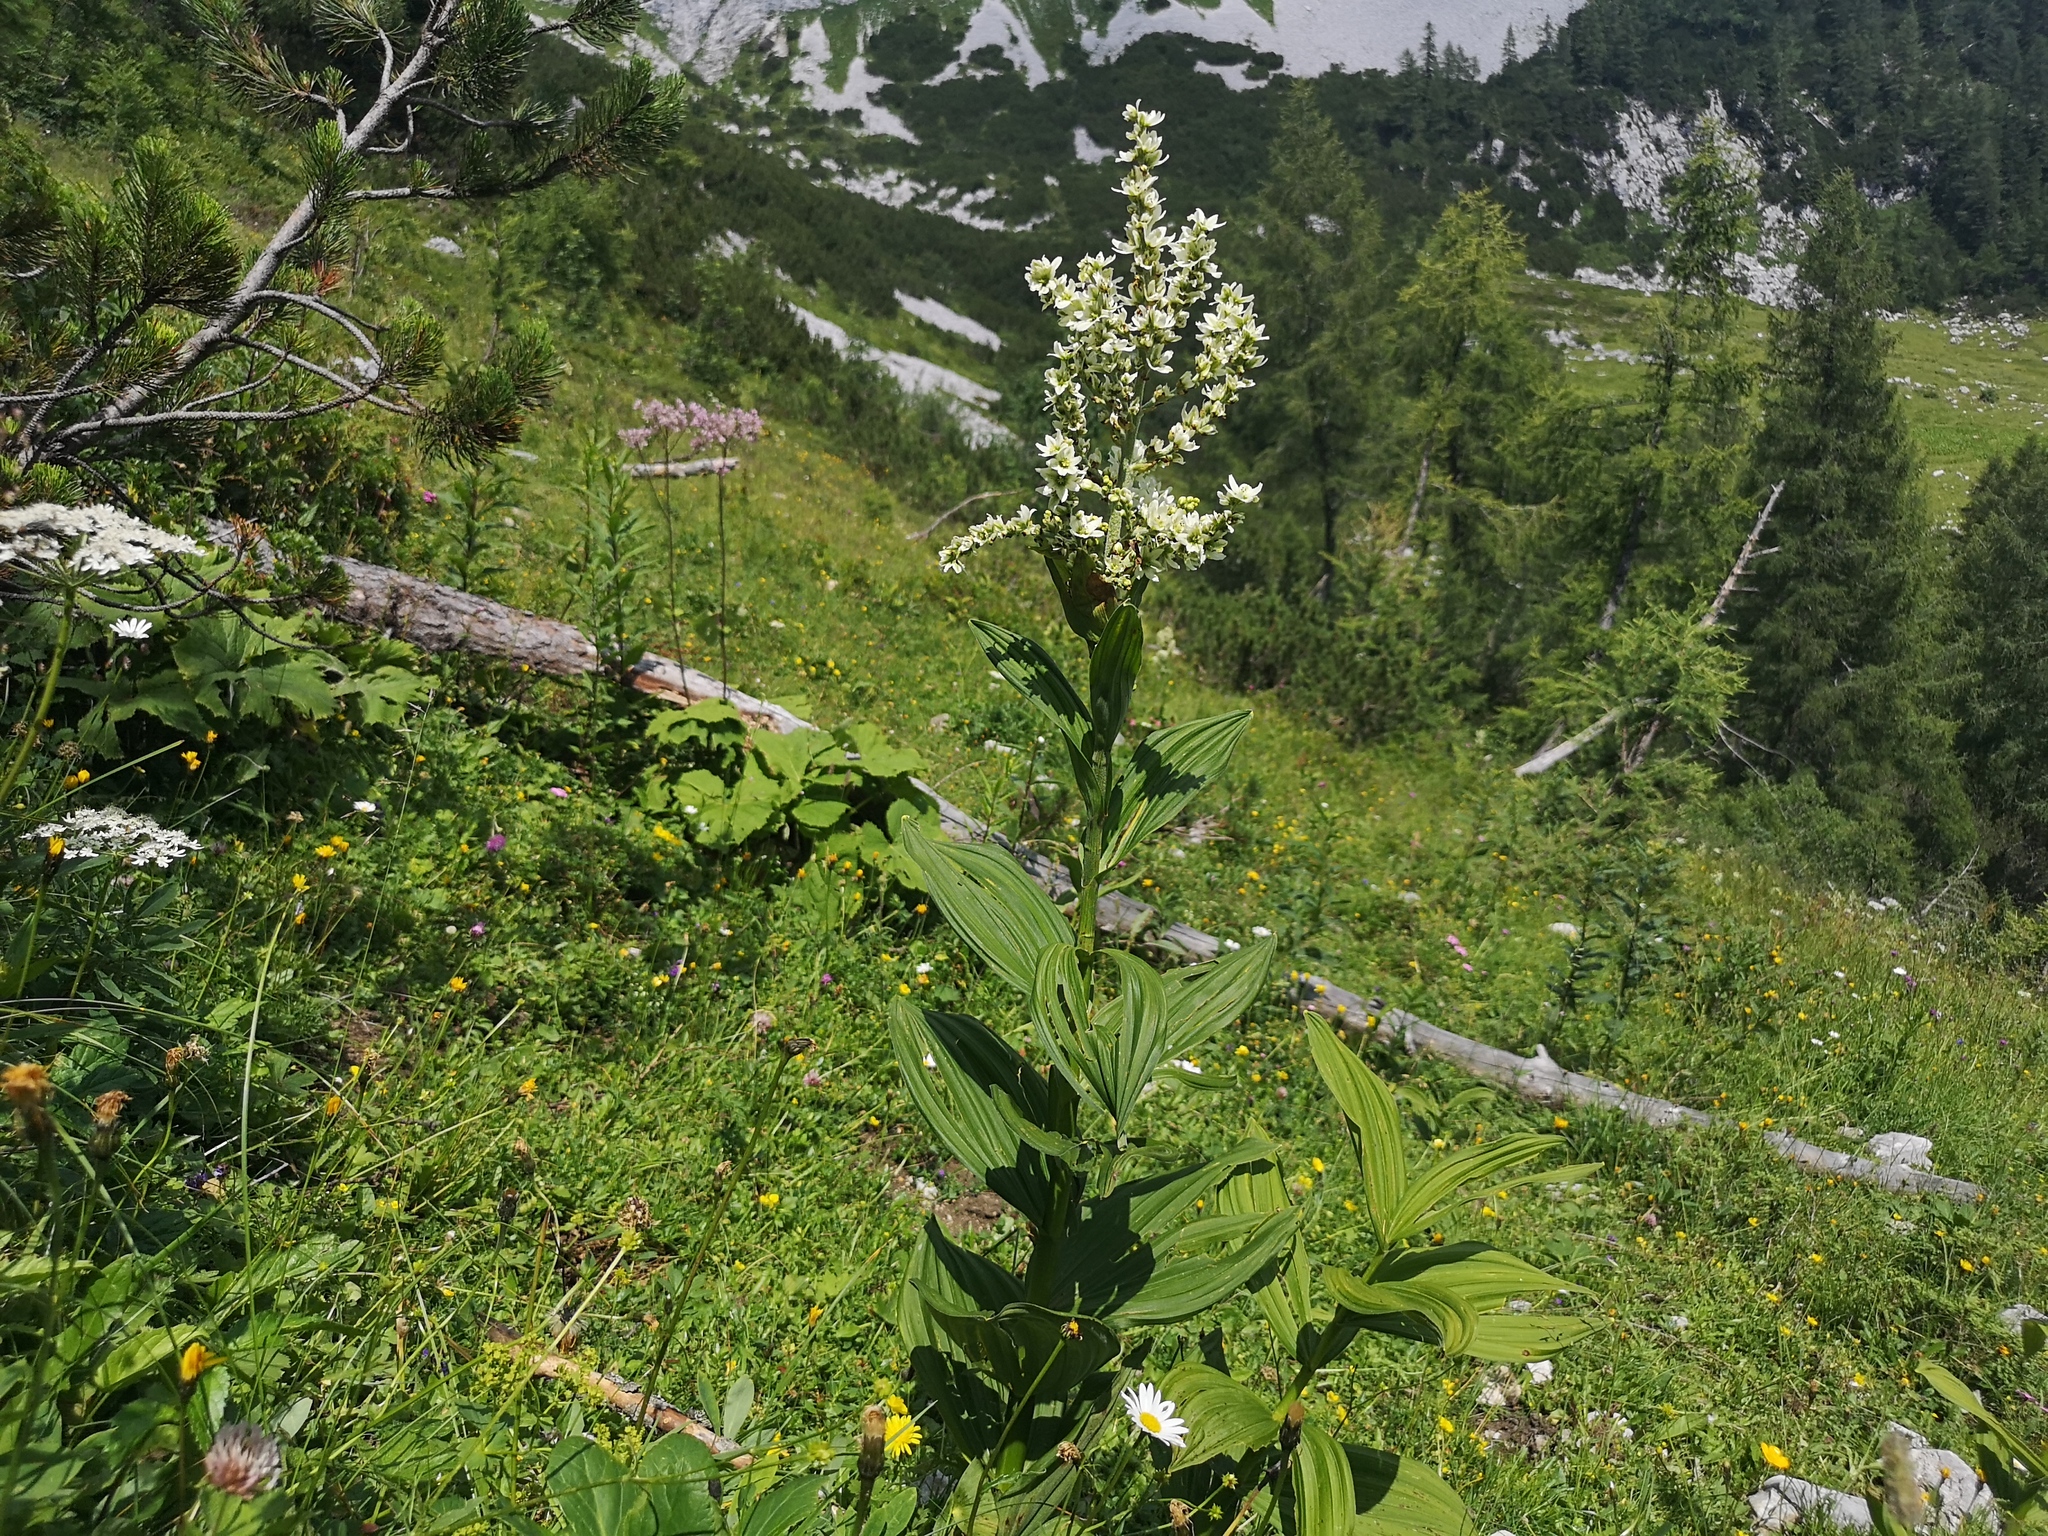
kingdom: Plantae
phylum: Tracheophyta
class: Liliopsida
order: Liliales
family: Melanthiaceae
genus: Veratrum
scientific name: Veratrum album
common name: White veratrum
